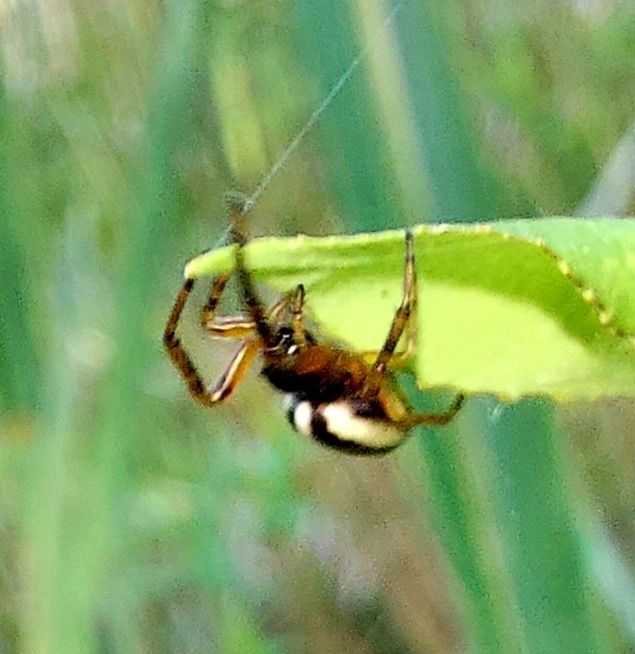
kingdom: Animalia
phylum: Arthropoda
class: Arachnida
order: Araneae
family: Araneidae
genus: Singa
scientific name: Singa nitidula
